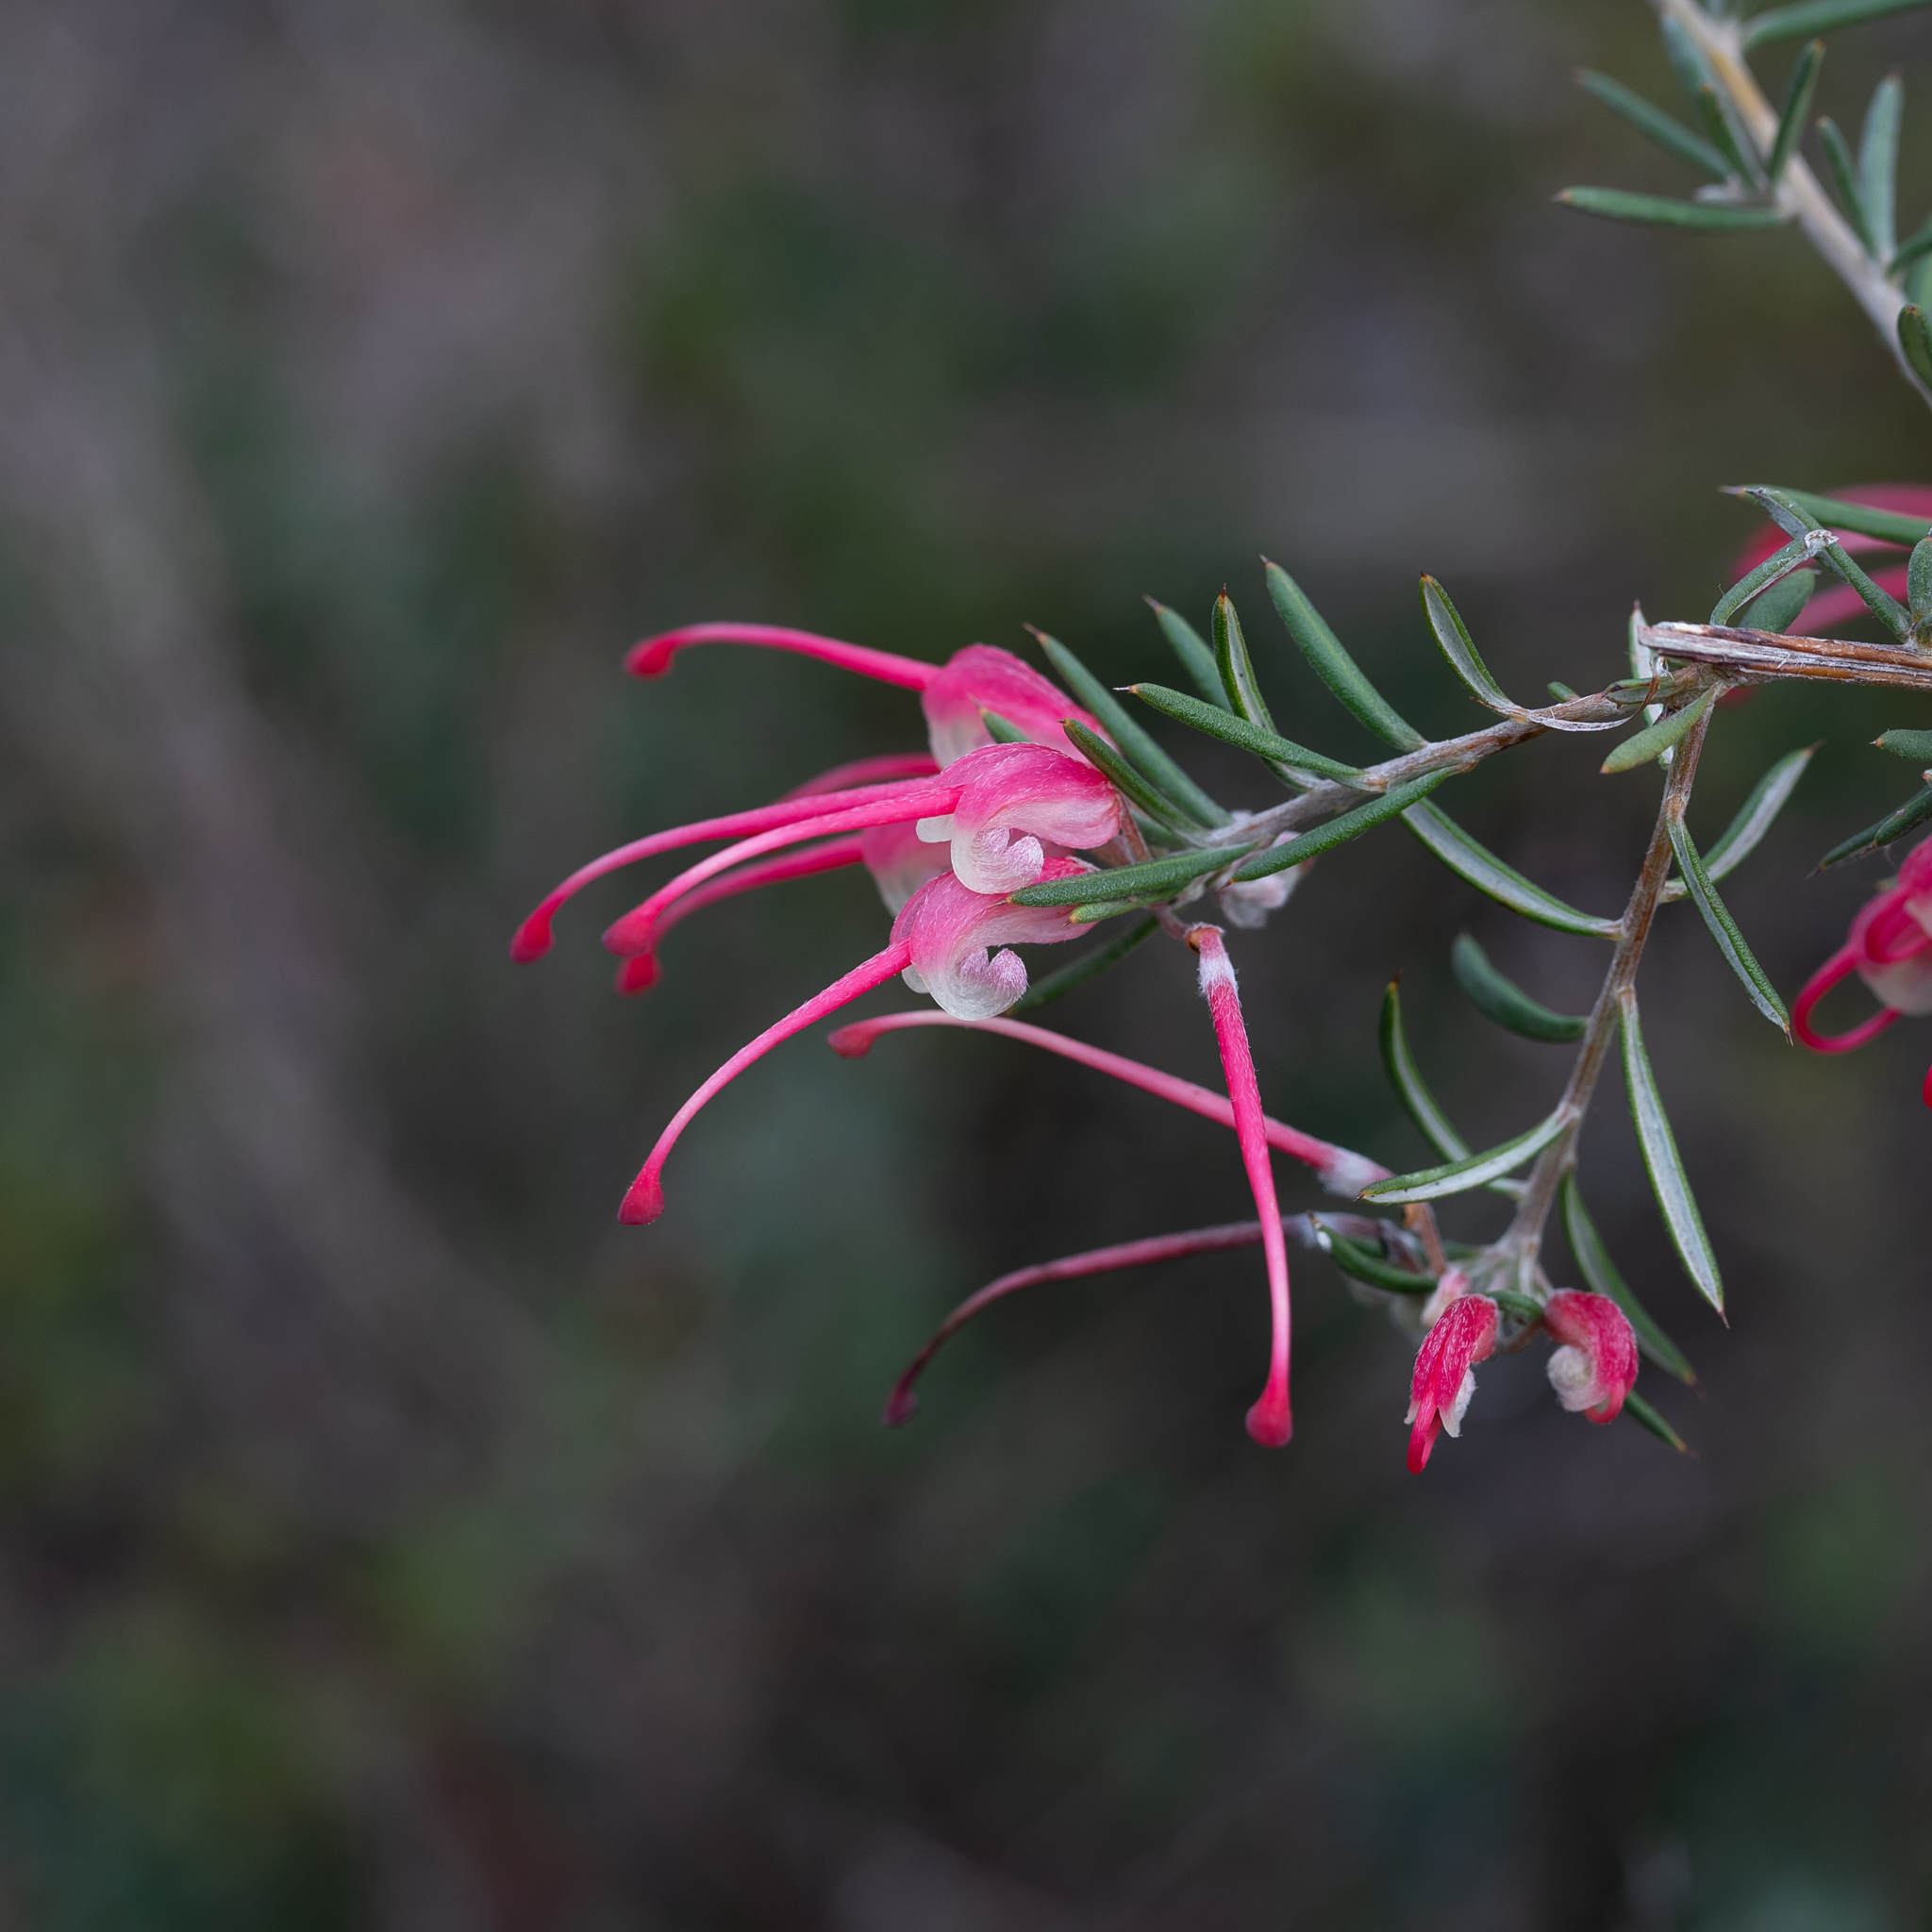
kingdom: Plantae
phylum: Tracheophyta
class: Magnoliopsida
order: Proteales
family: Proteaceae
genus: Grevillea
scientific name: Grevillea lavandulacea
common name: Lavender grevillea
